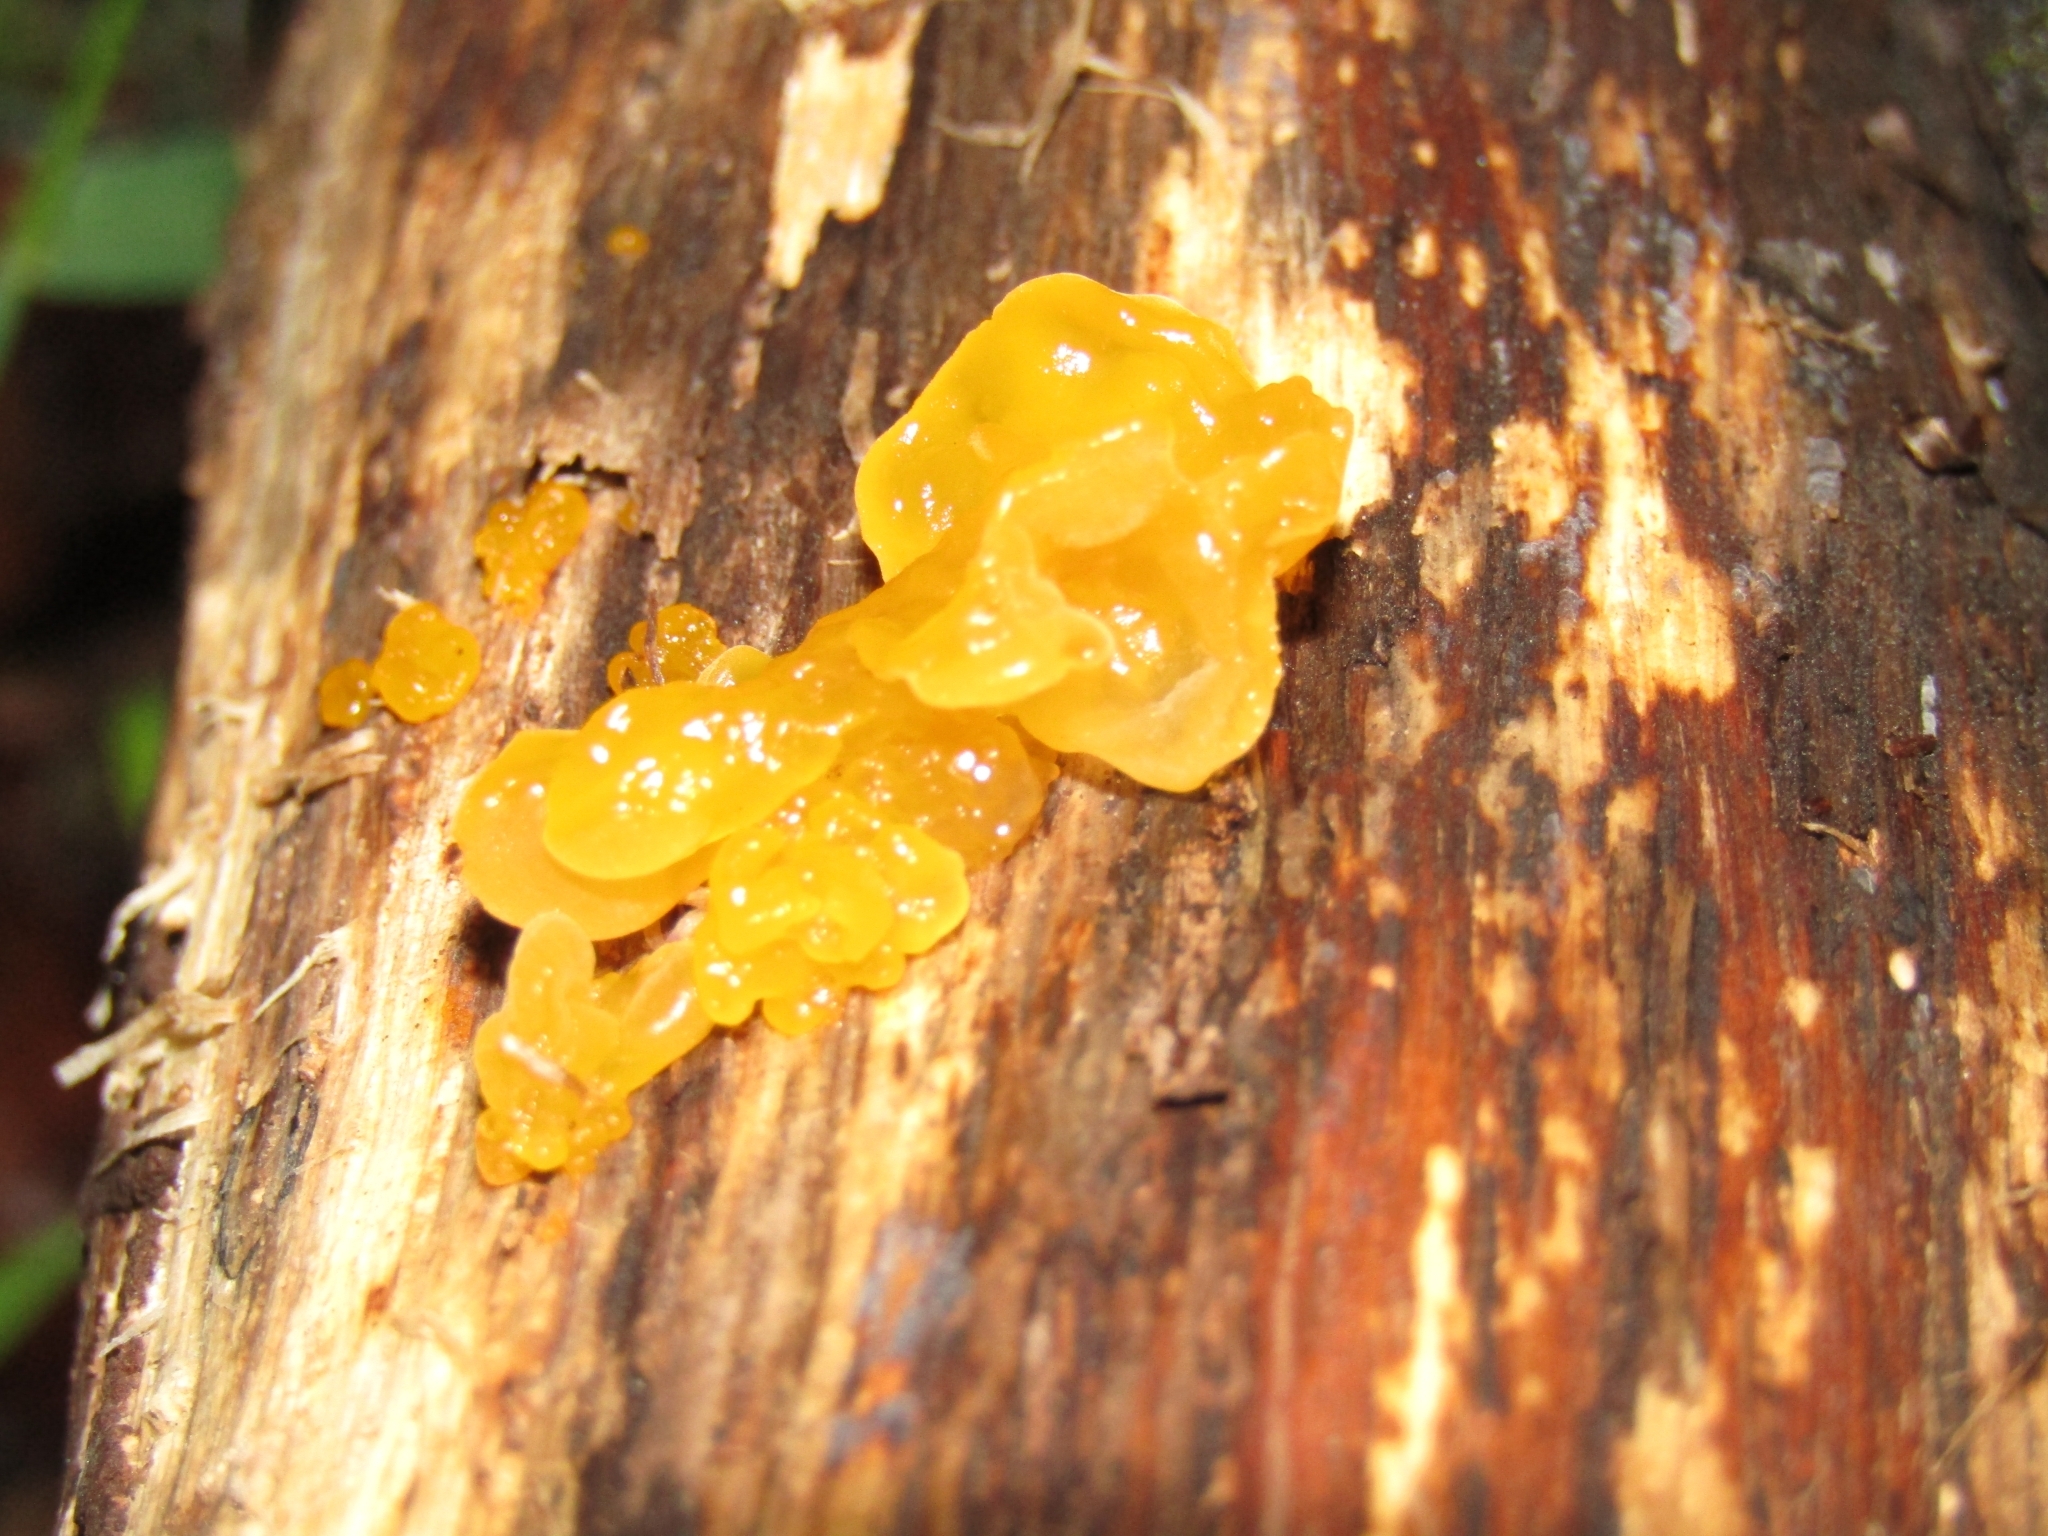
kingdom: Fungi
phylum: Basidiomycota
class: Tremellomycetes
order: Tremellales
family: Tremellaceae
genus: Tremella
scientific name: Tremella mesenterica
